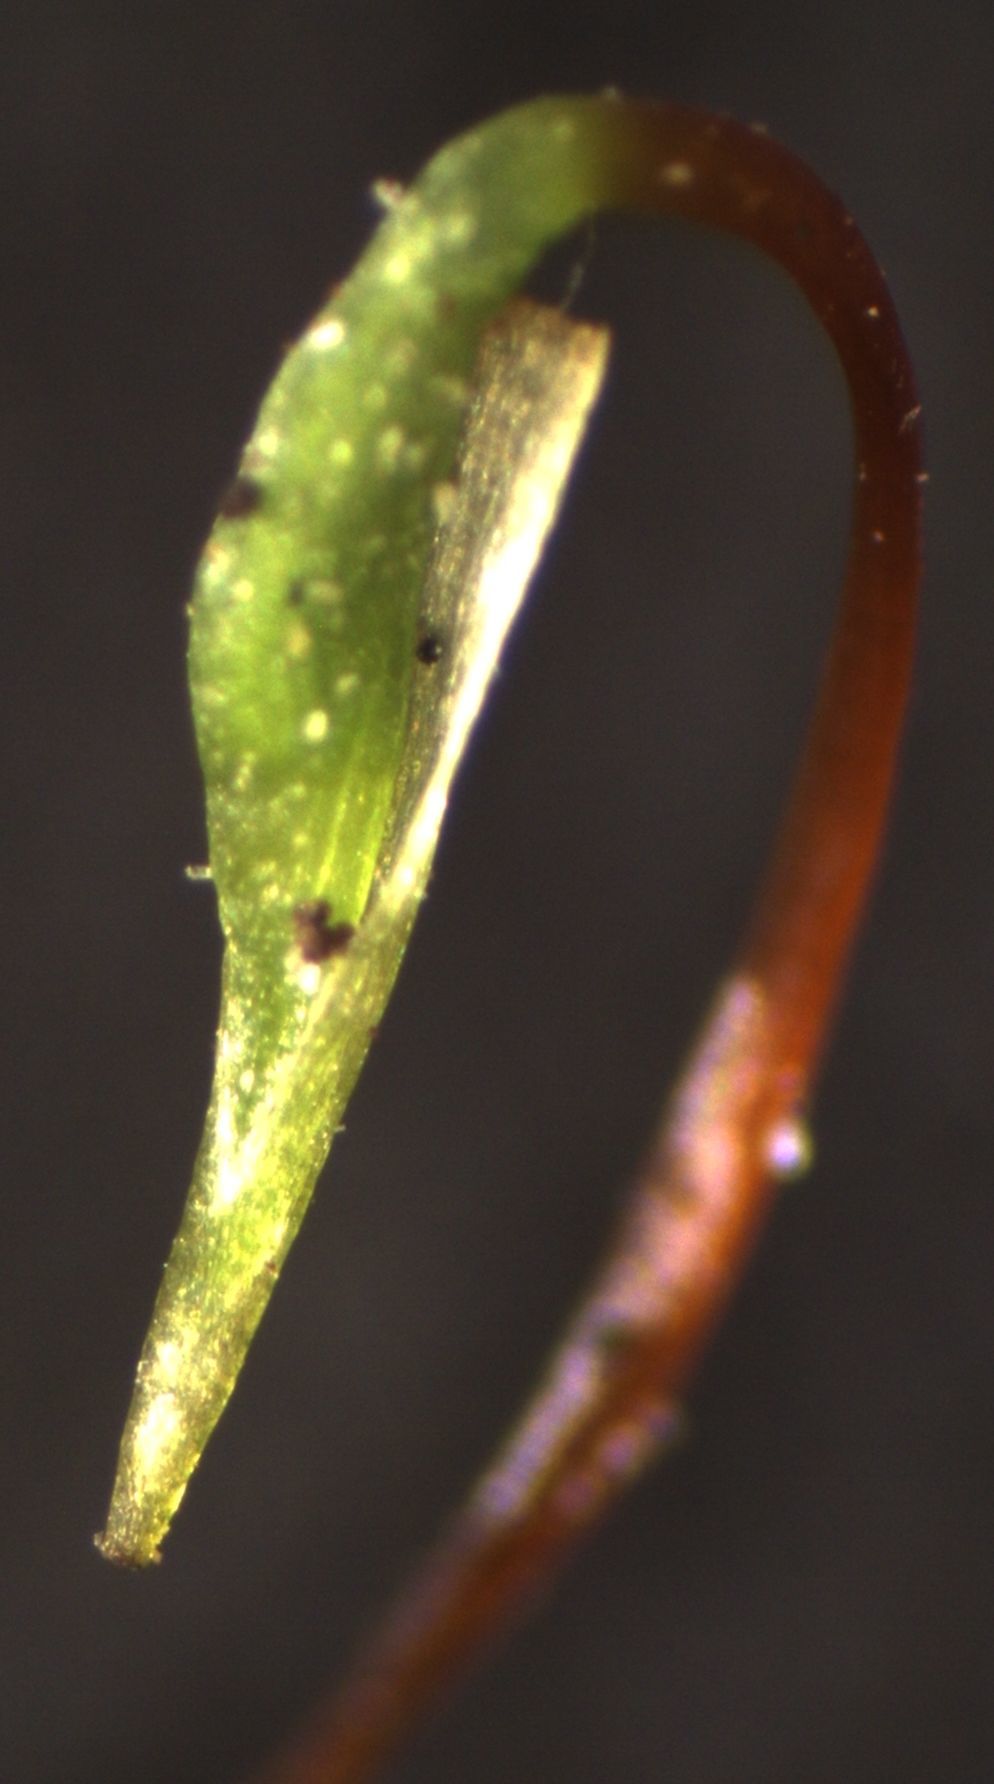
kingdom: Plantae
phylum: Bryophyta
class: Bryopsida
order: Hypnales
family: Brachytheciaceae
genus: Rhynchostegium
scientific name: Rhynchostegium tenuifolium
